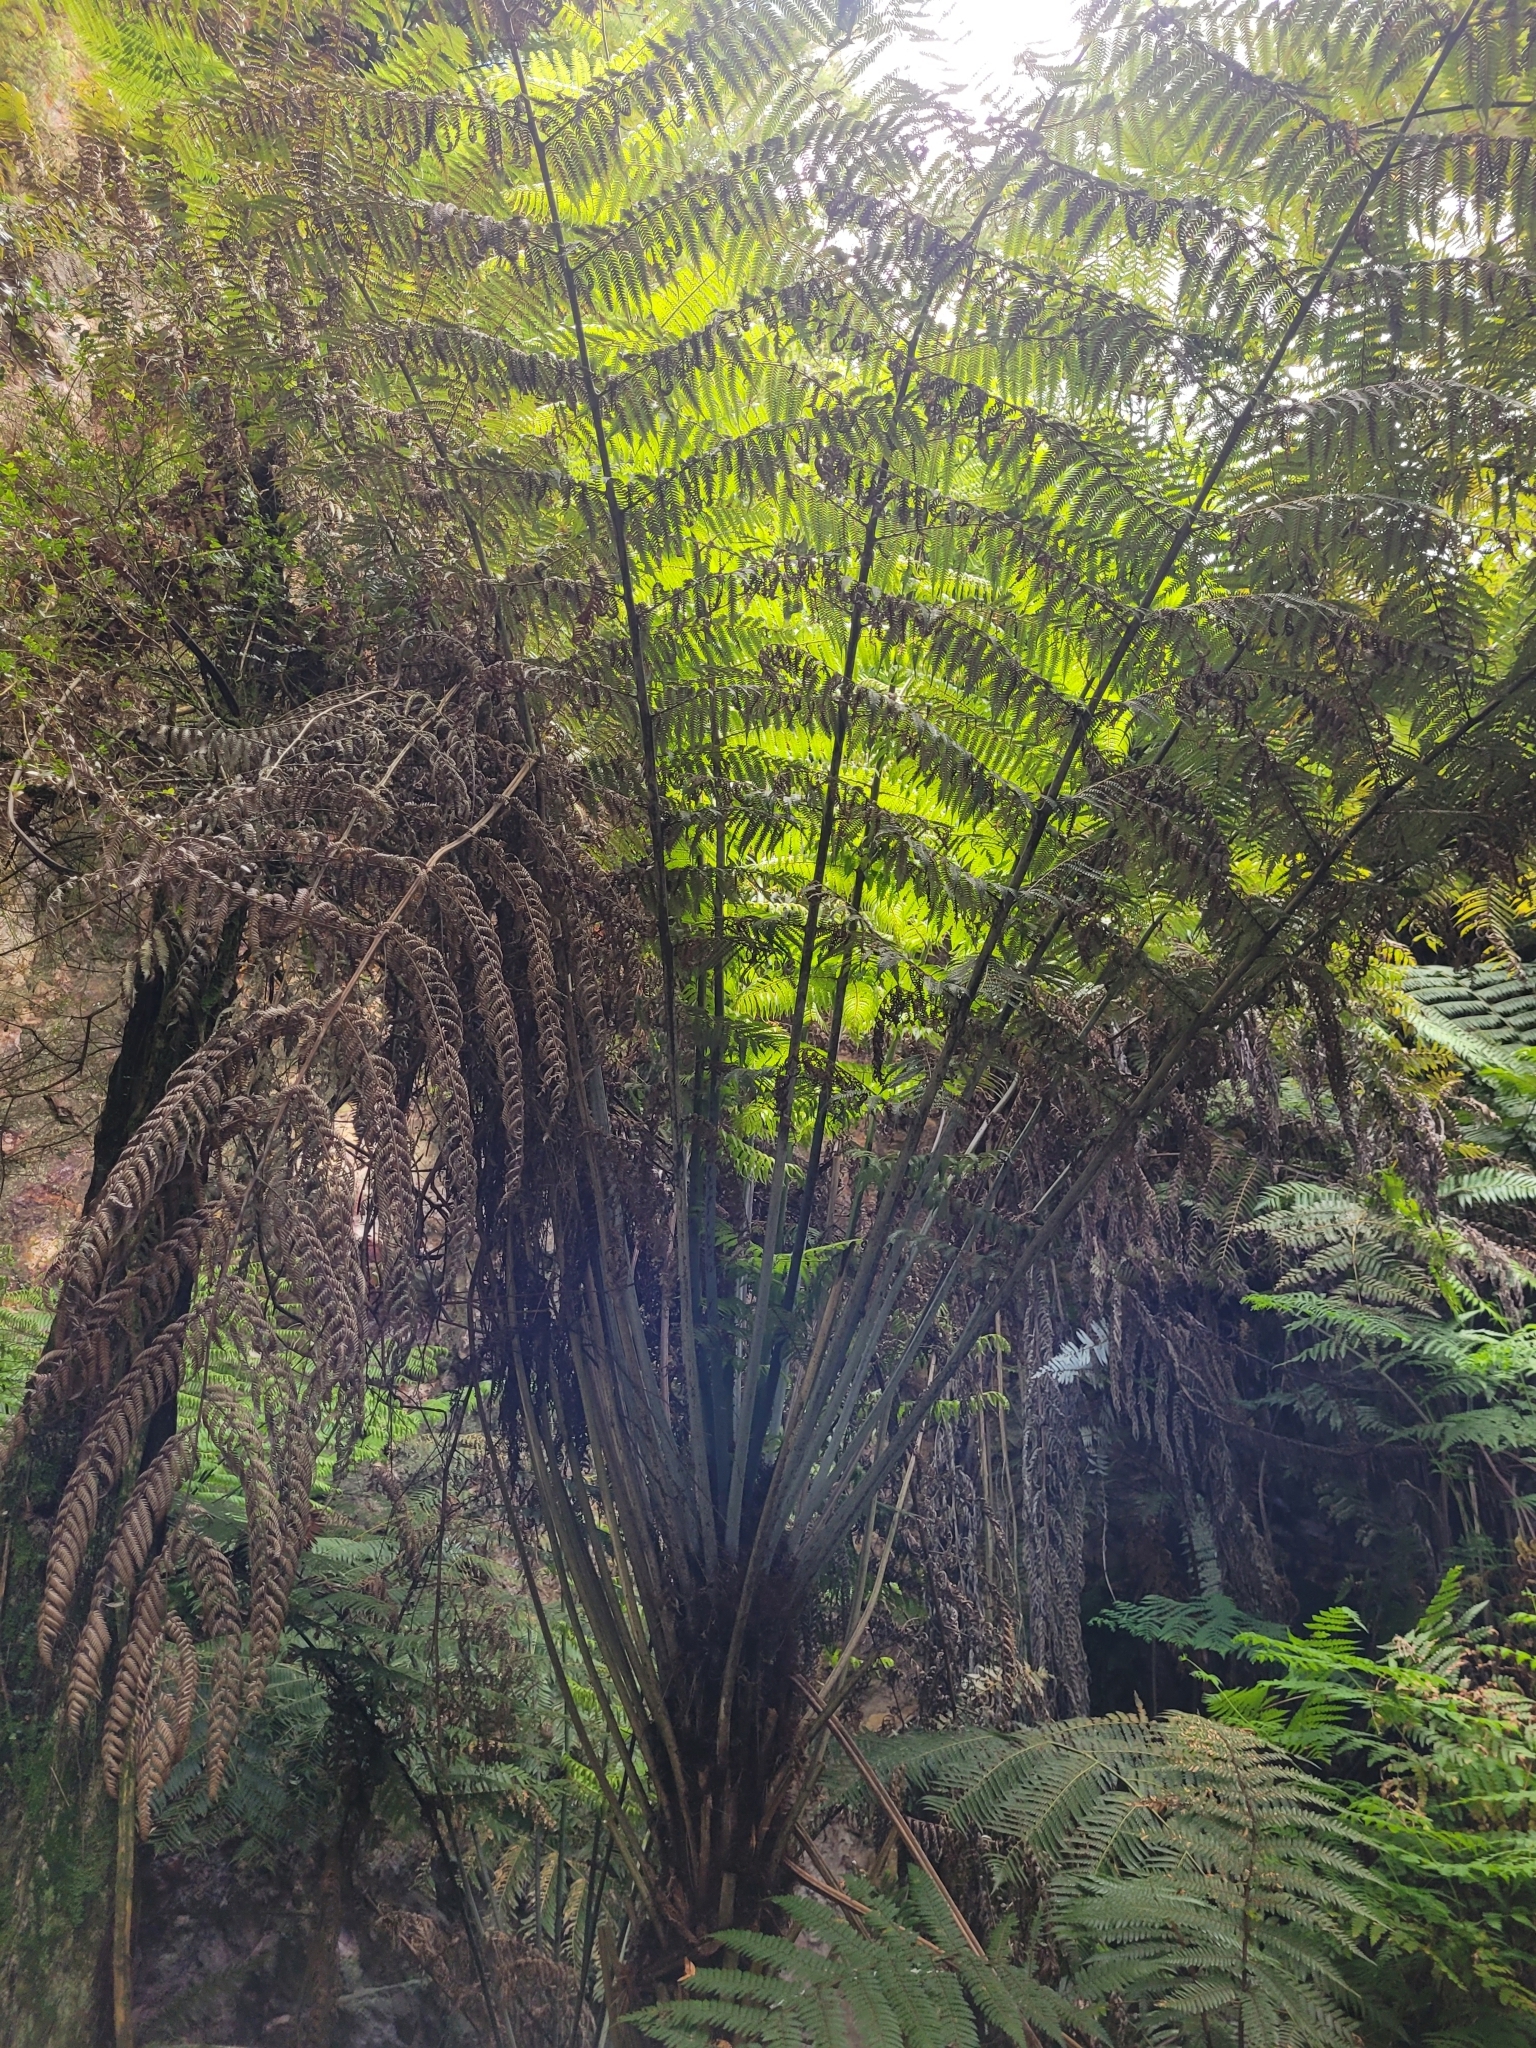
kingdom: Plantae
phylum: Tracheophyta
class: Polypodiopsida
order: Cyatheales
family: Cyatheaceae
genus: Alsophila
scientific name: Alsophila dealbata
